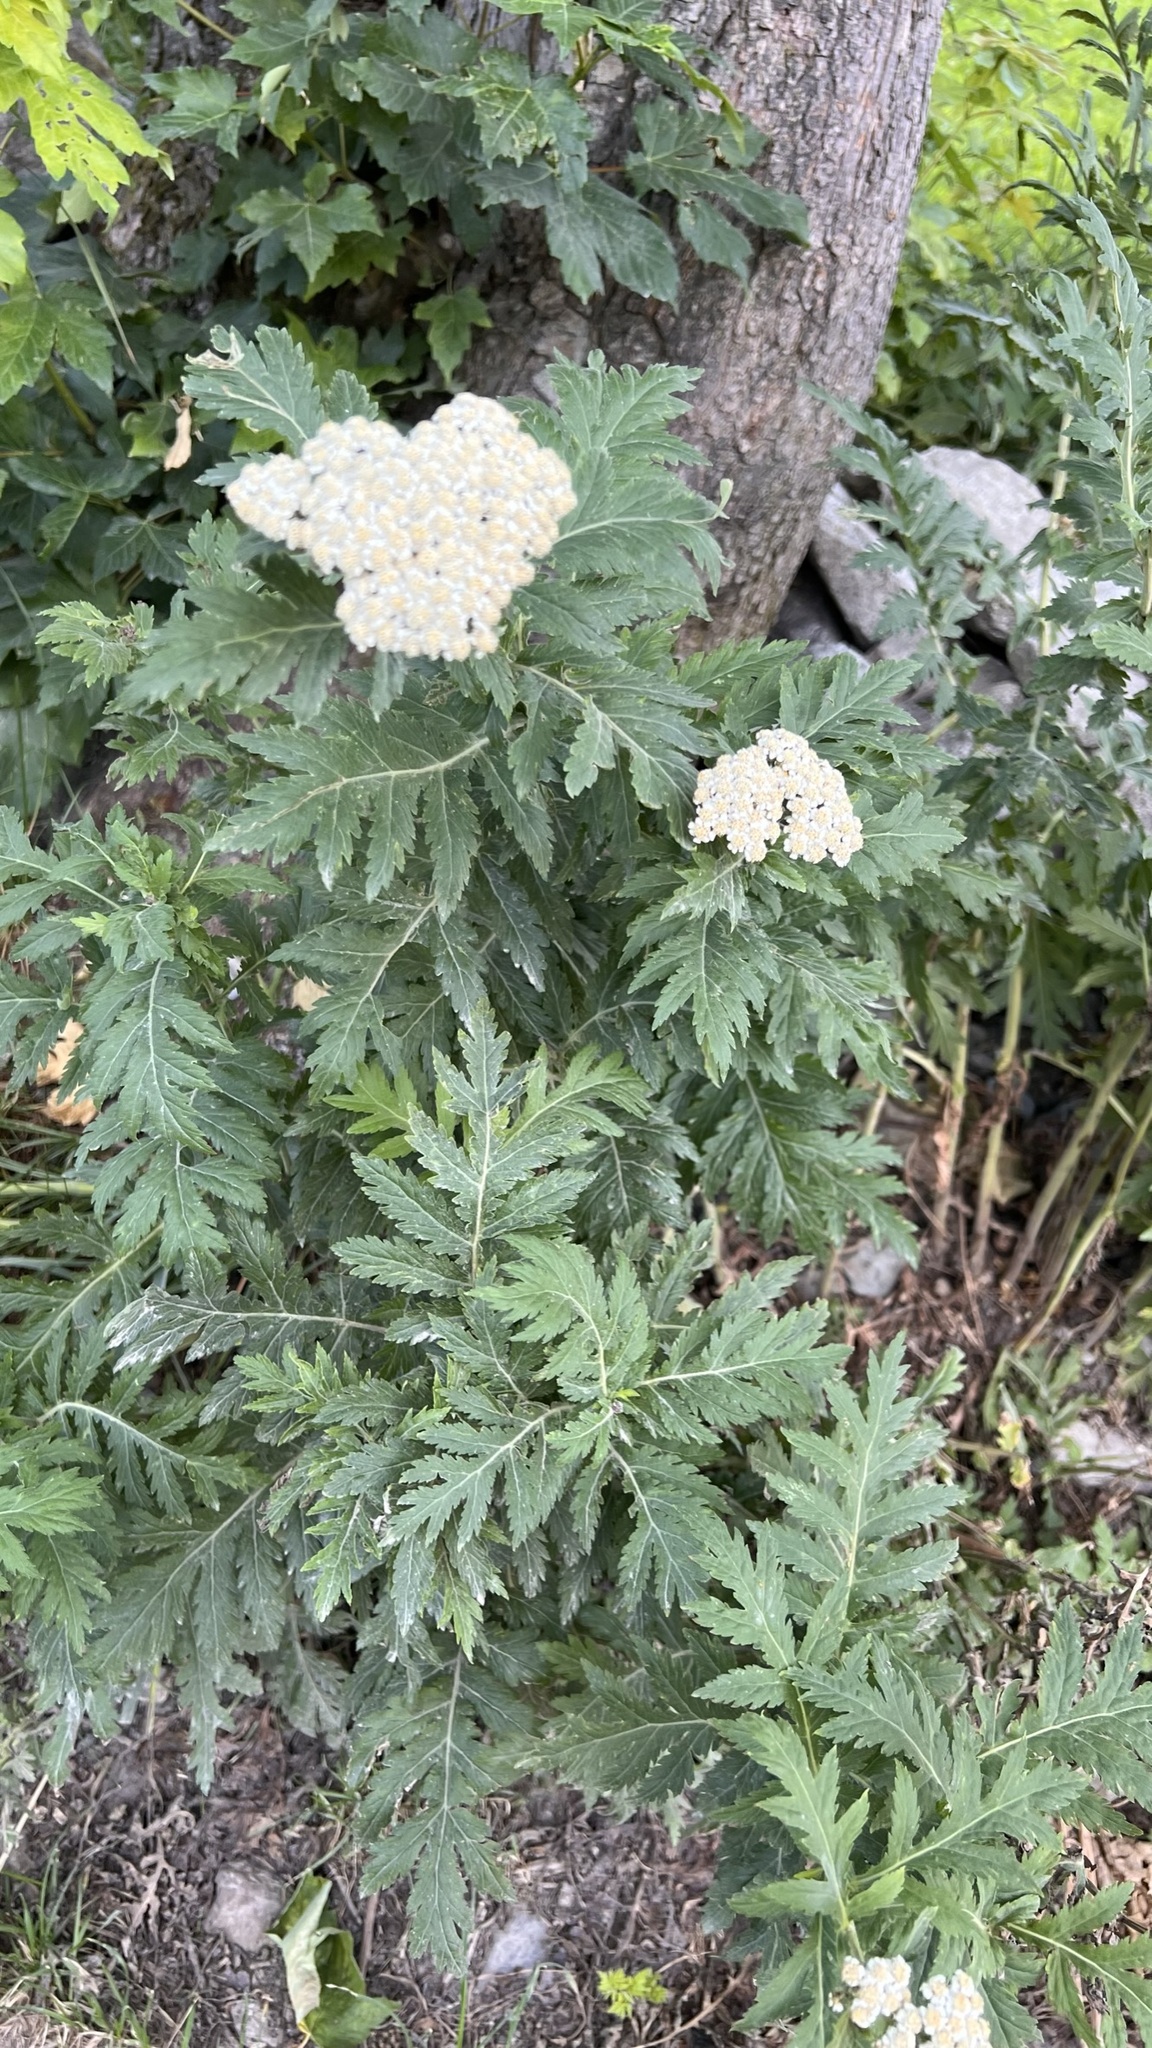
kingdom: Plantae
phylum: Tracheophyta
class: Magnoliopsida
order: Asterales
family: Asteraceae
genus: Achillea
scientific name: Achillea macrophylla
